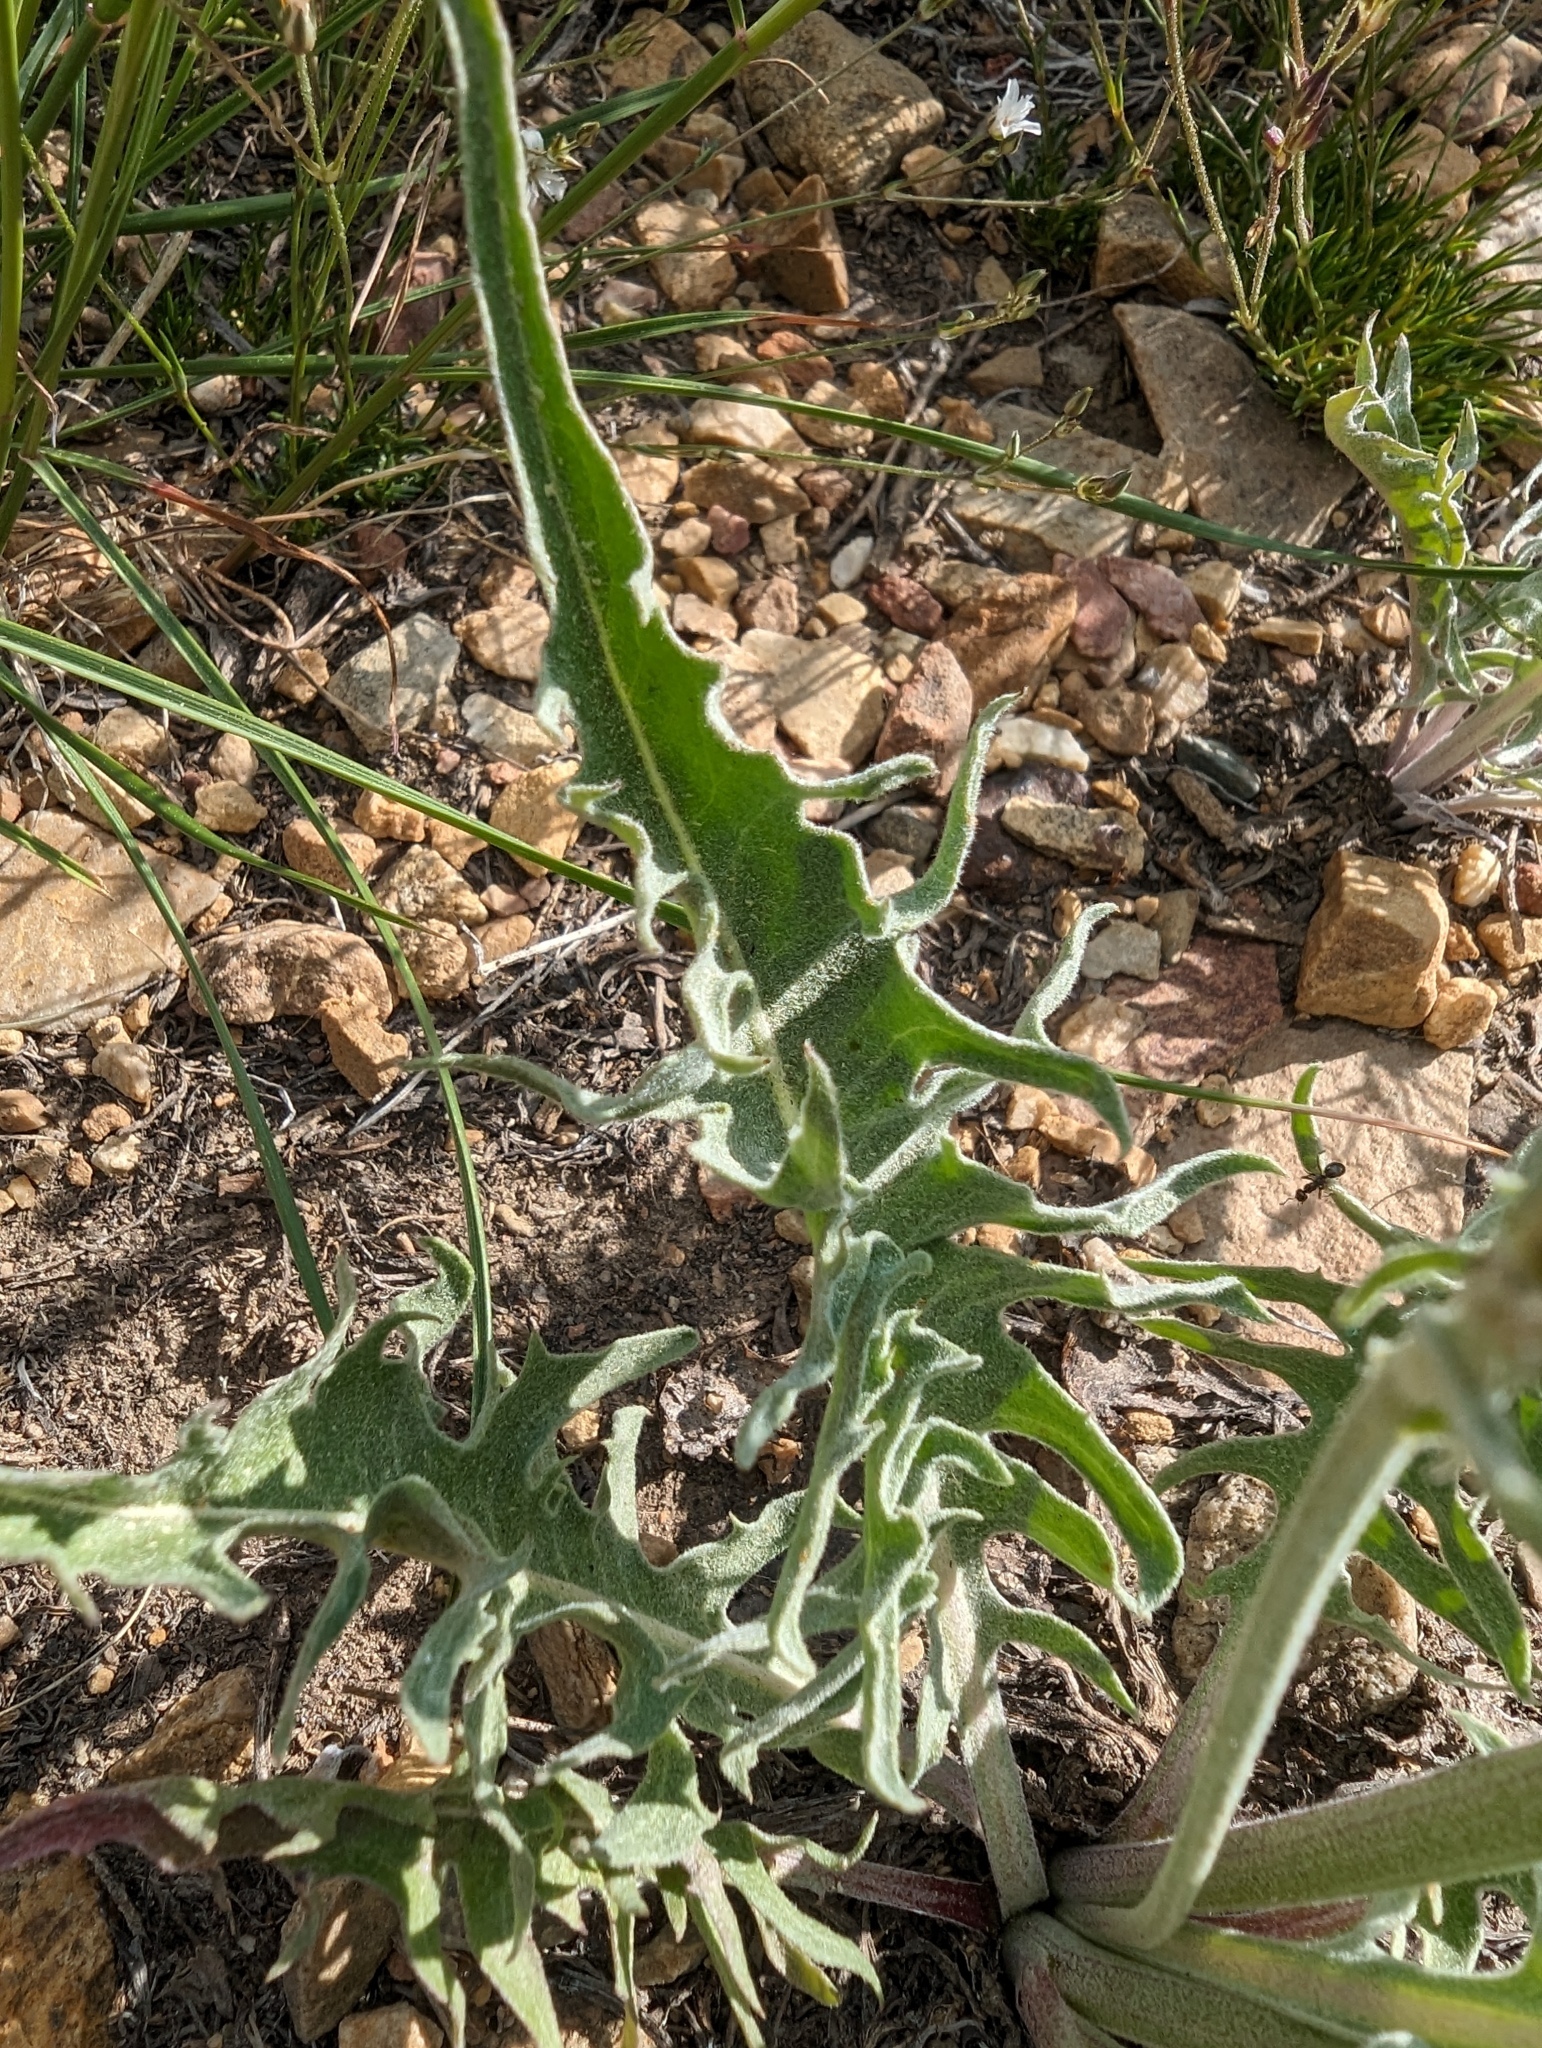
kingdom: Plantae
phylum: Tracheophyta
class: Magnoliopsida
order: Asterales
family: Asteraceae
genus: Crepis
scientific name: Crepis intermedia
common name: Limestone hawk's-beard
